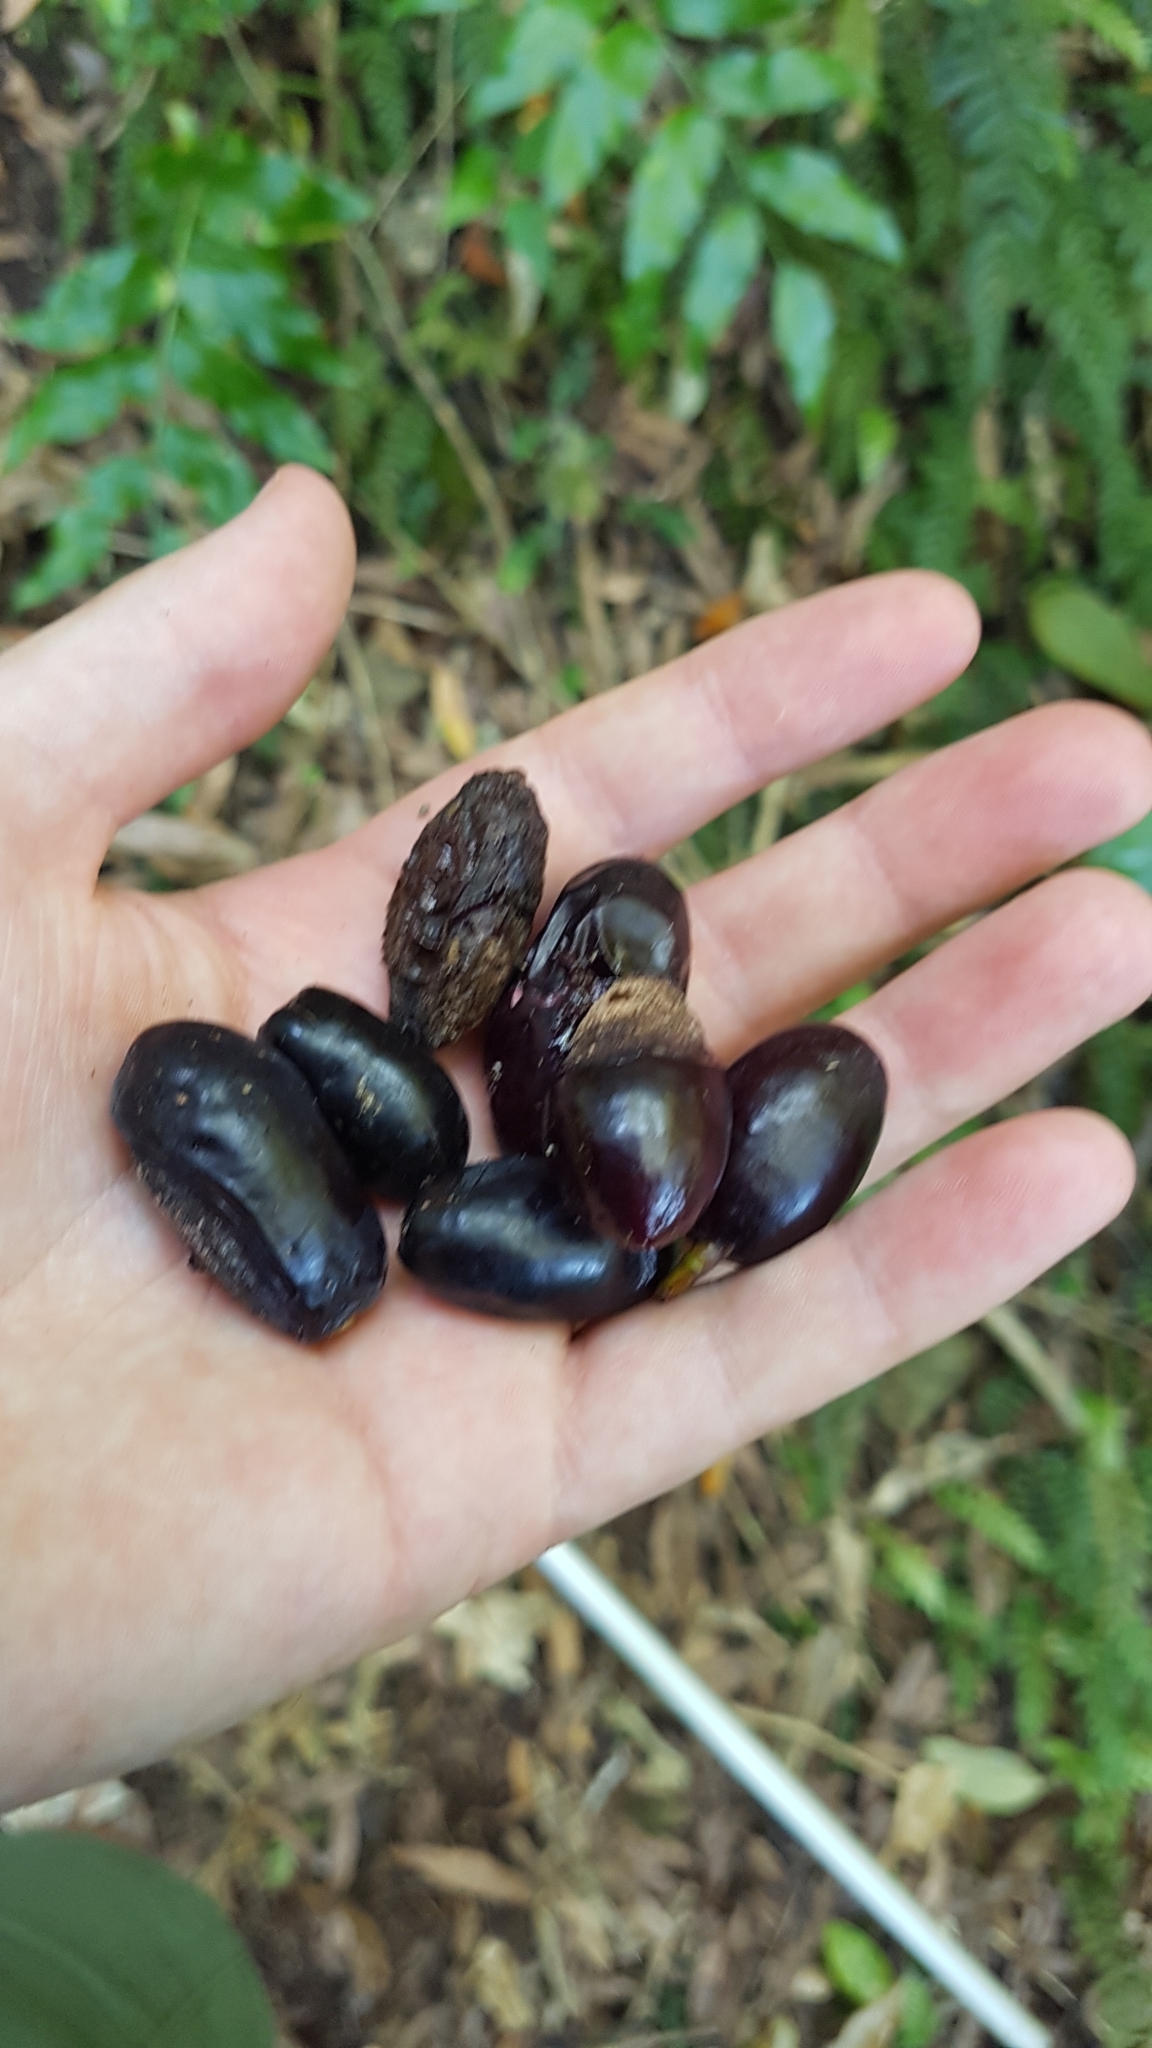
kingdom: Plantae
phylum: Tracheophyta
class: Magnoliopsida
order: Laurales
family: Lauraceae
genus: Beilschmiedia
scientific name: Beilschmiedia tawa
